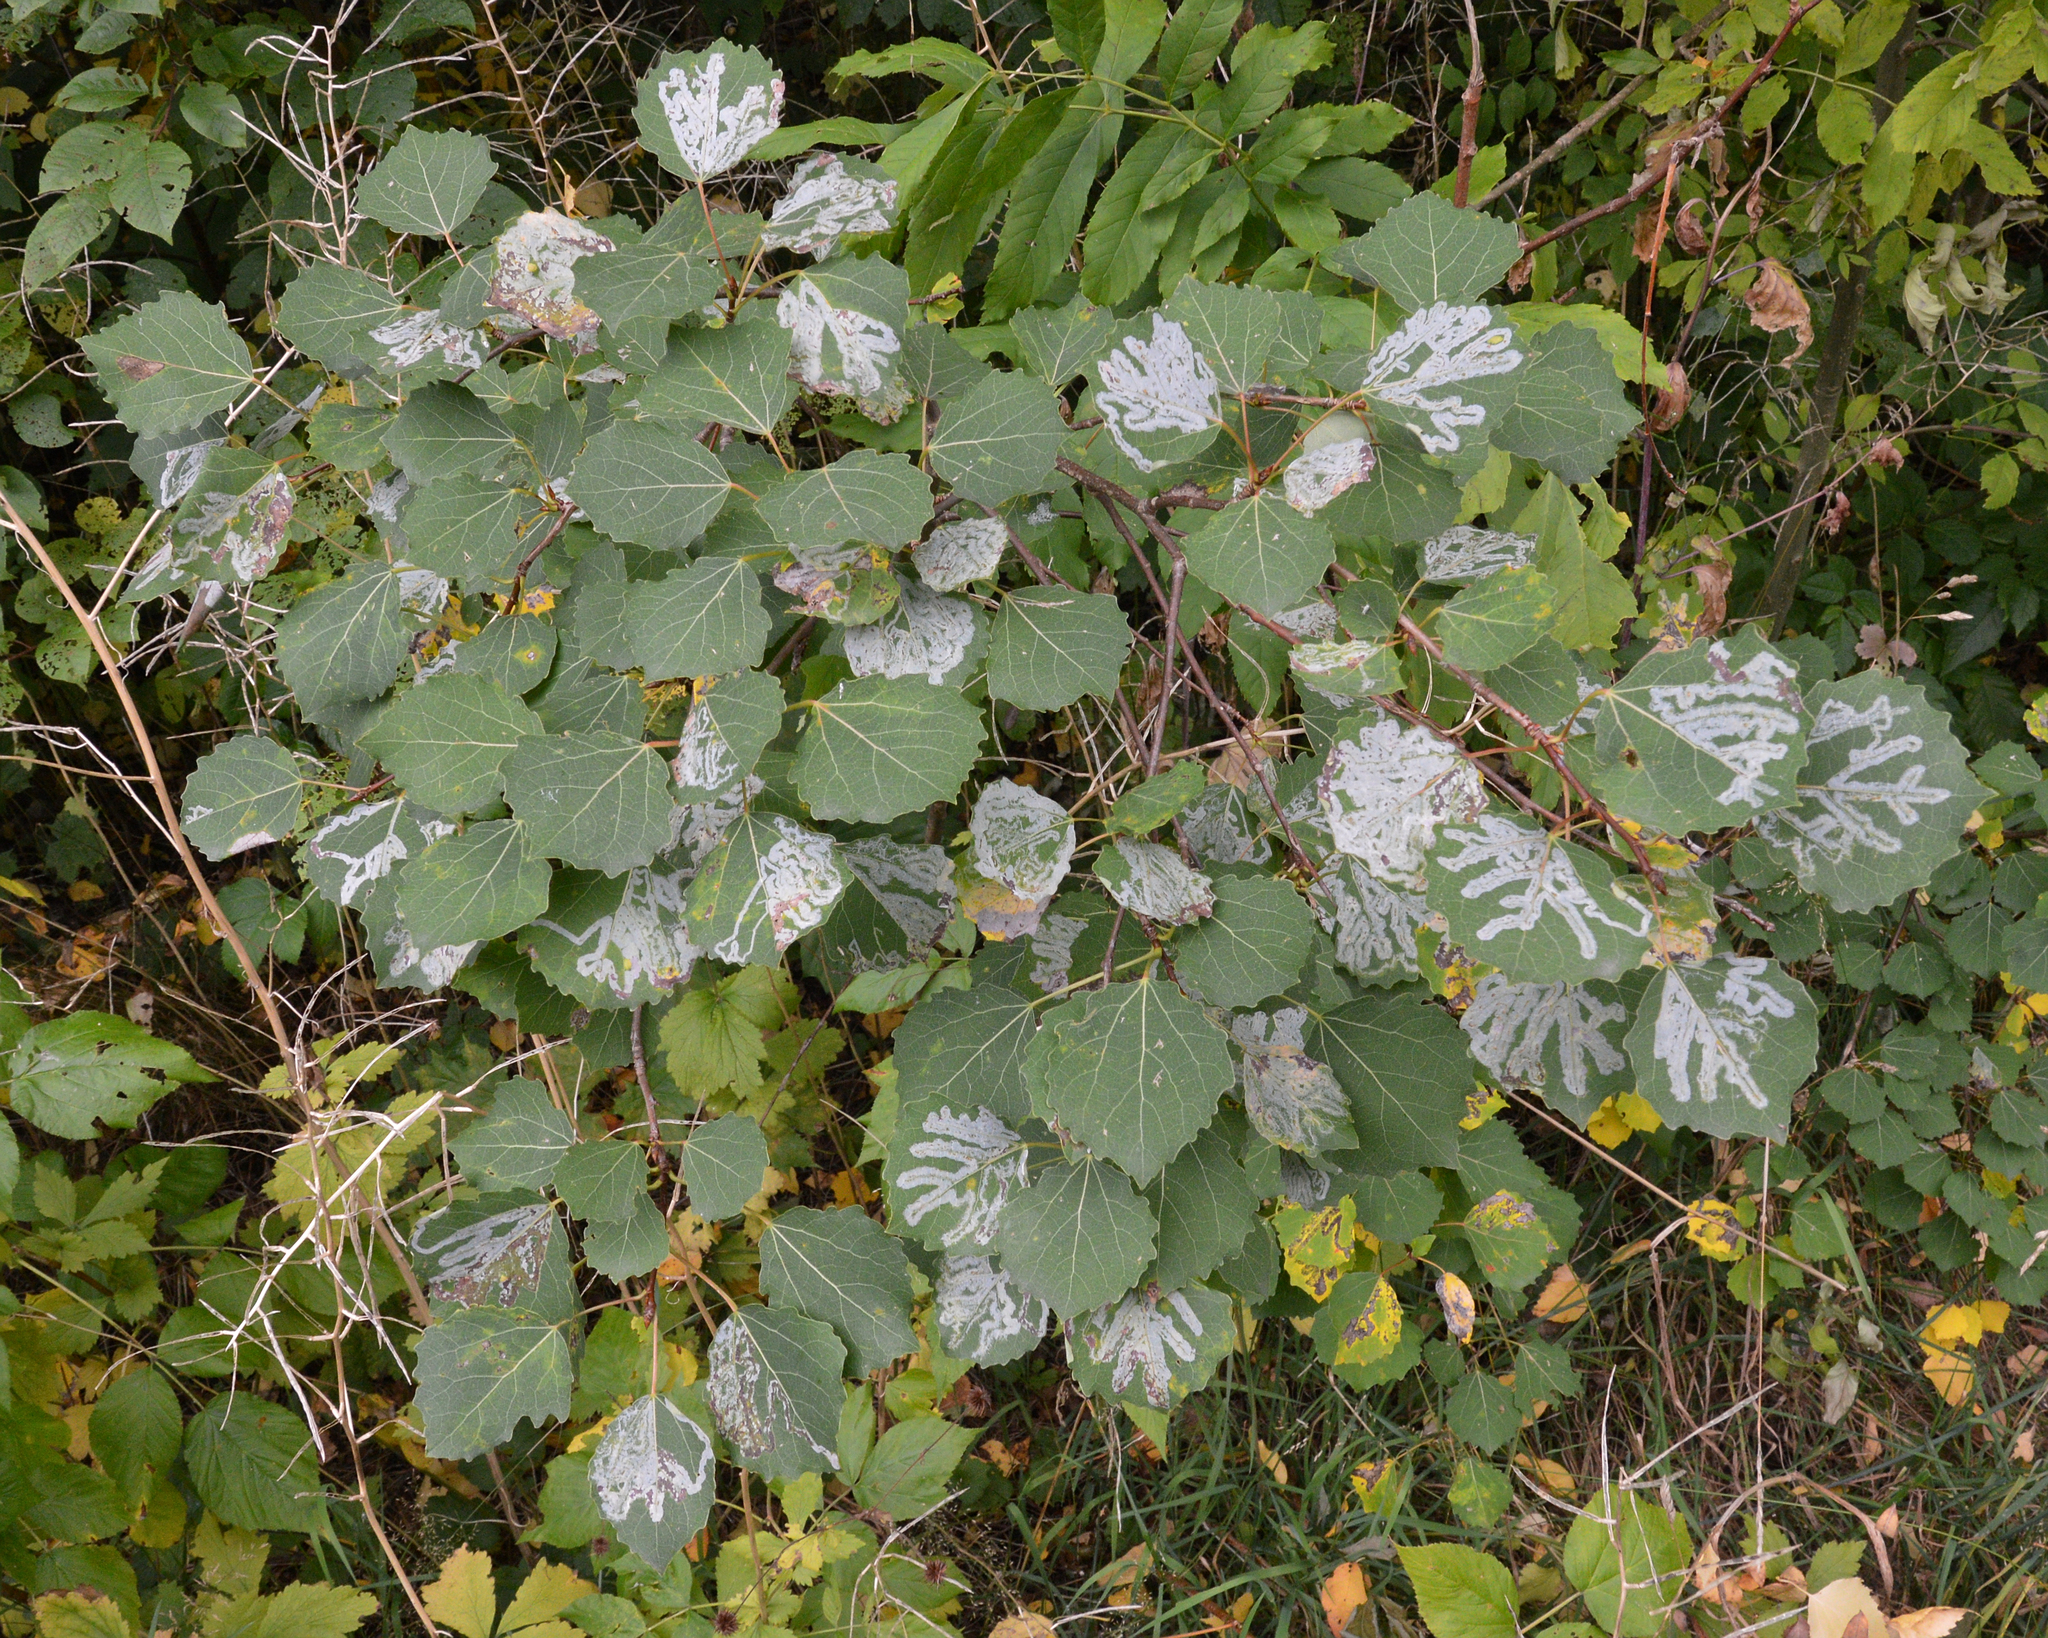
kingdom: Plantae
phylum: Tracheophyta
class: Magnoliopsida
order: Malpighiales
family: Salicaceae
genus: Populus
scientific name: Populus tremula
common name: European aspen
